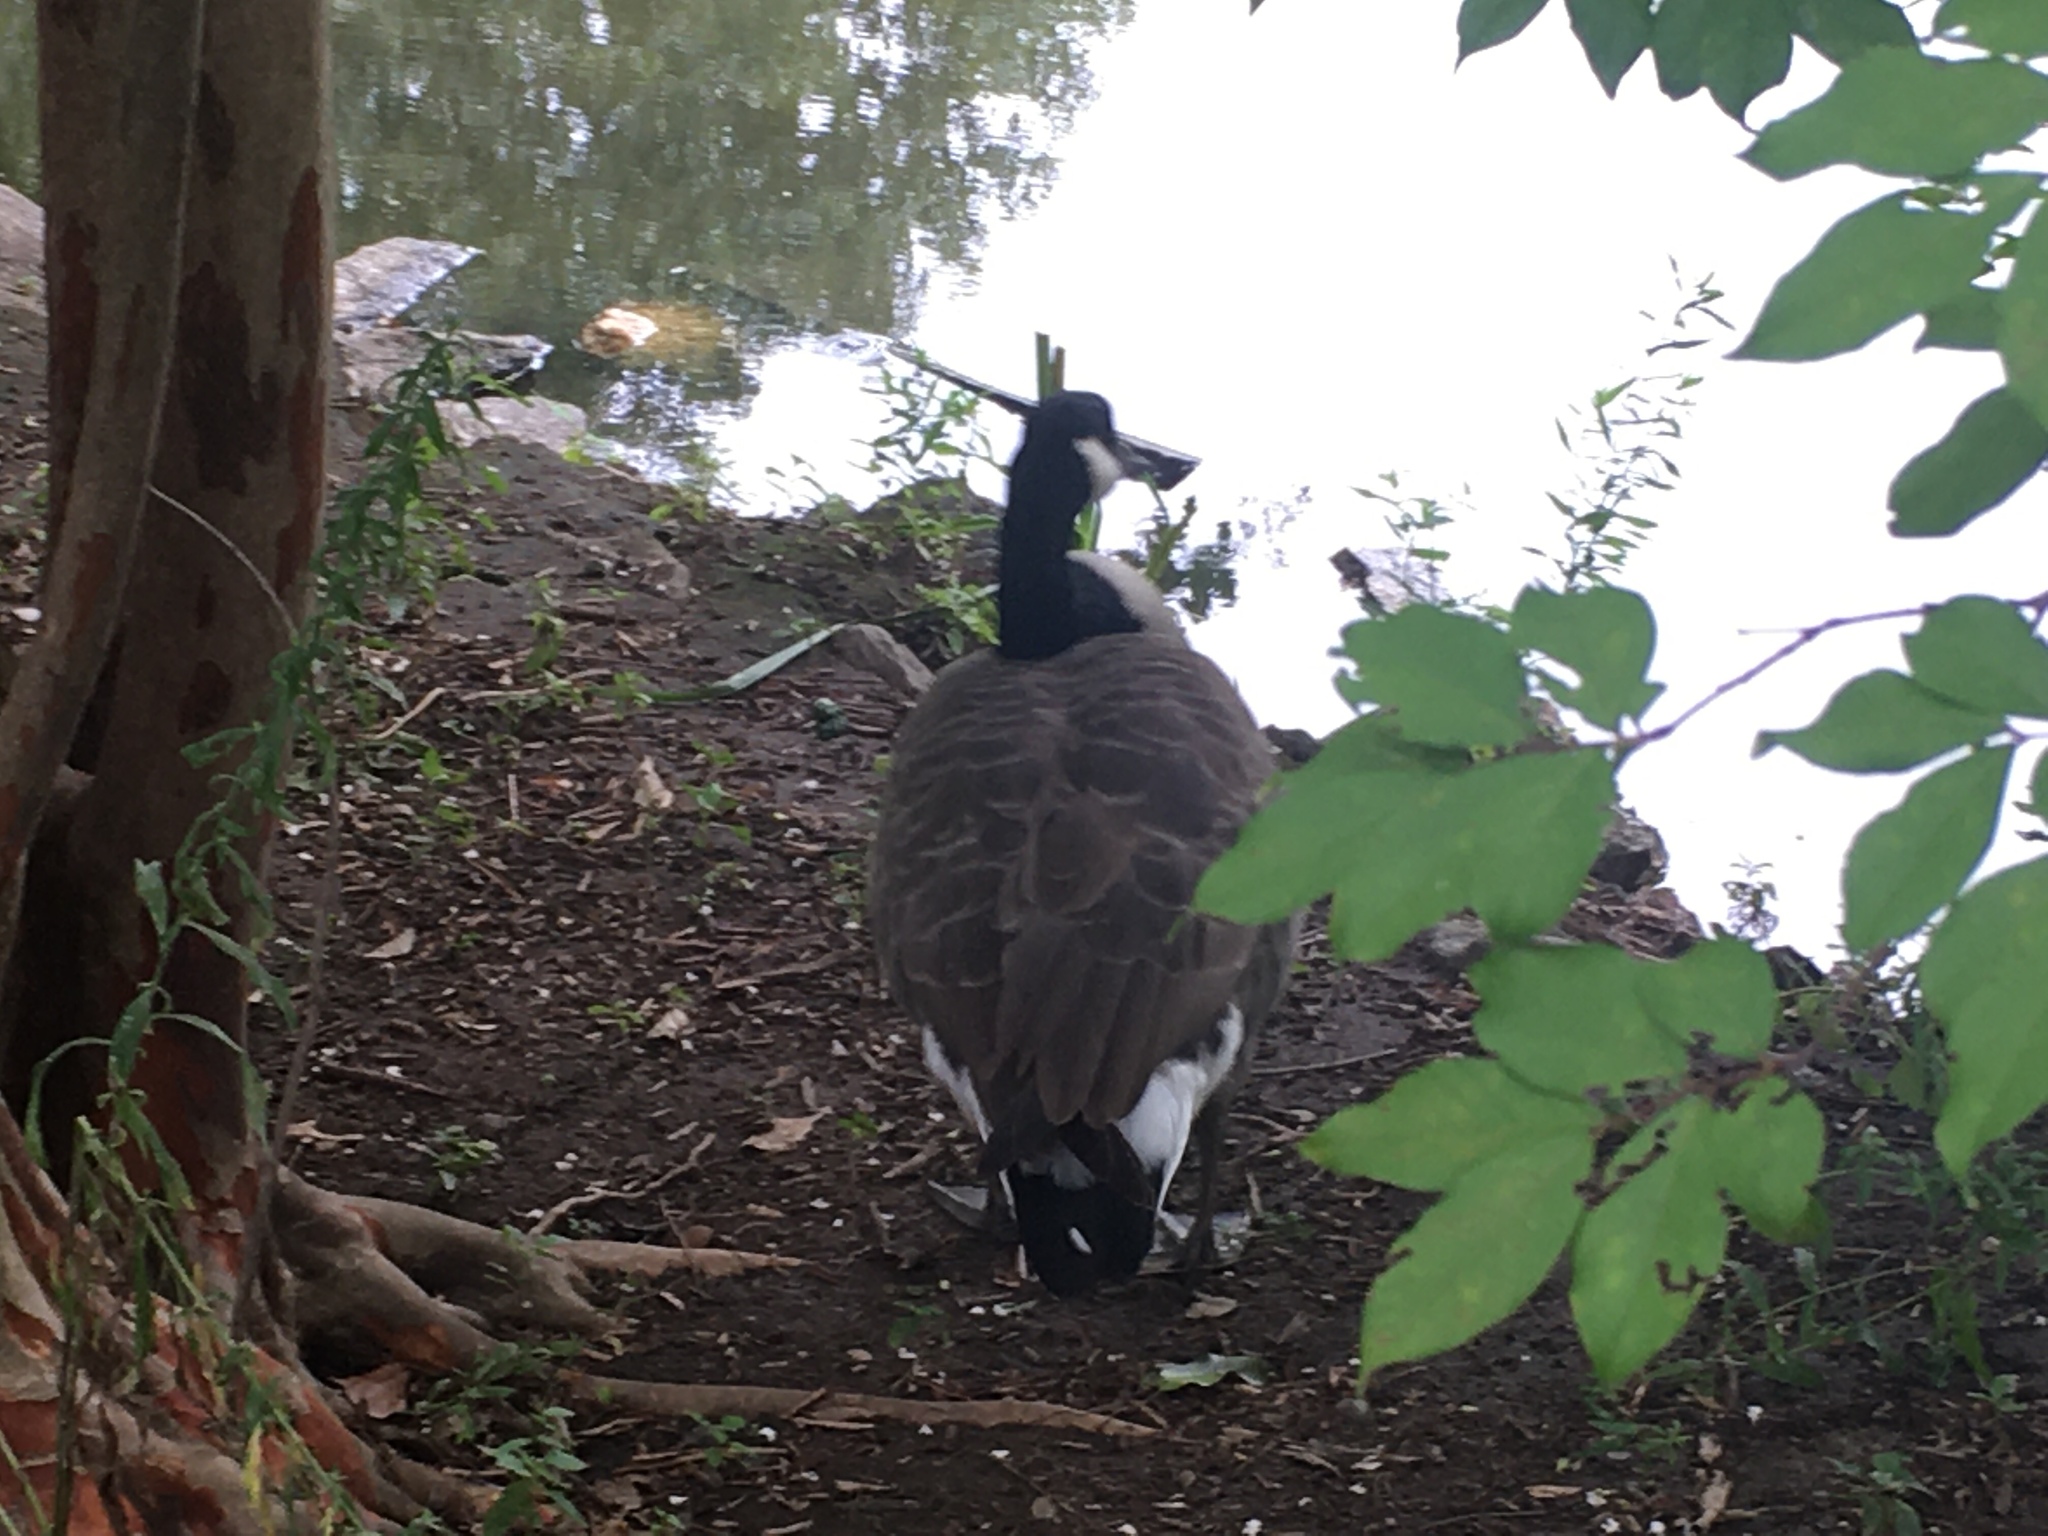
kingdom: Animalia
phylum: Chordata
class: Aves
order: Anseriformes
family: Anatidae
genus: Branta
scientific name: Branta canadensis
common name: Canada goose
